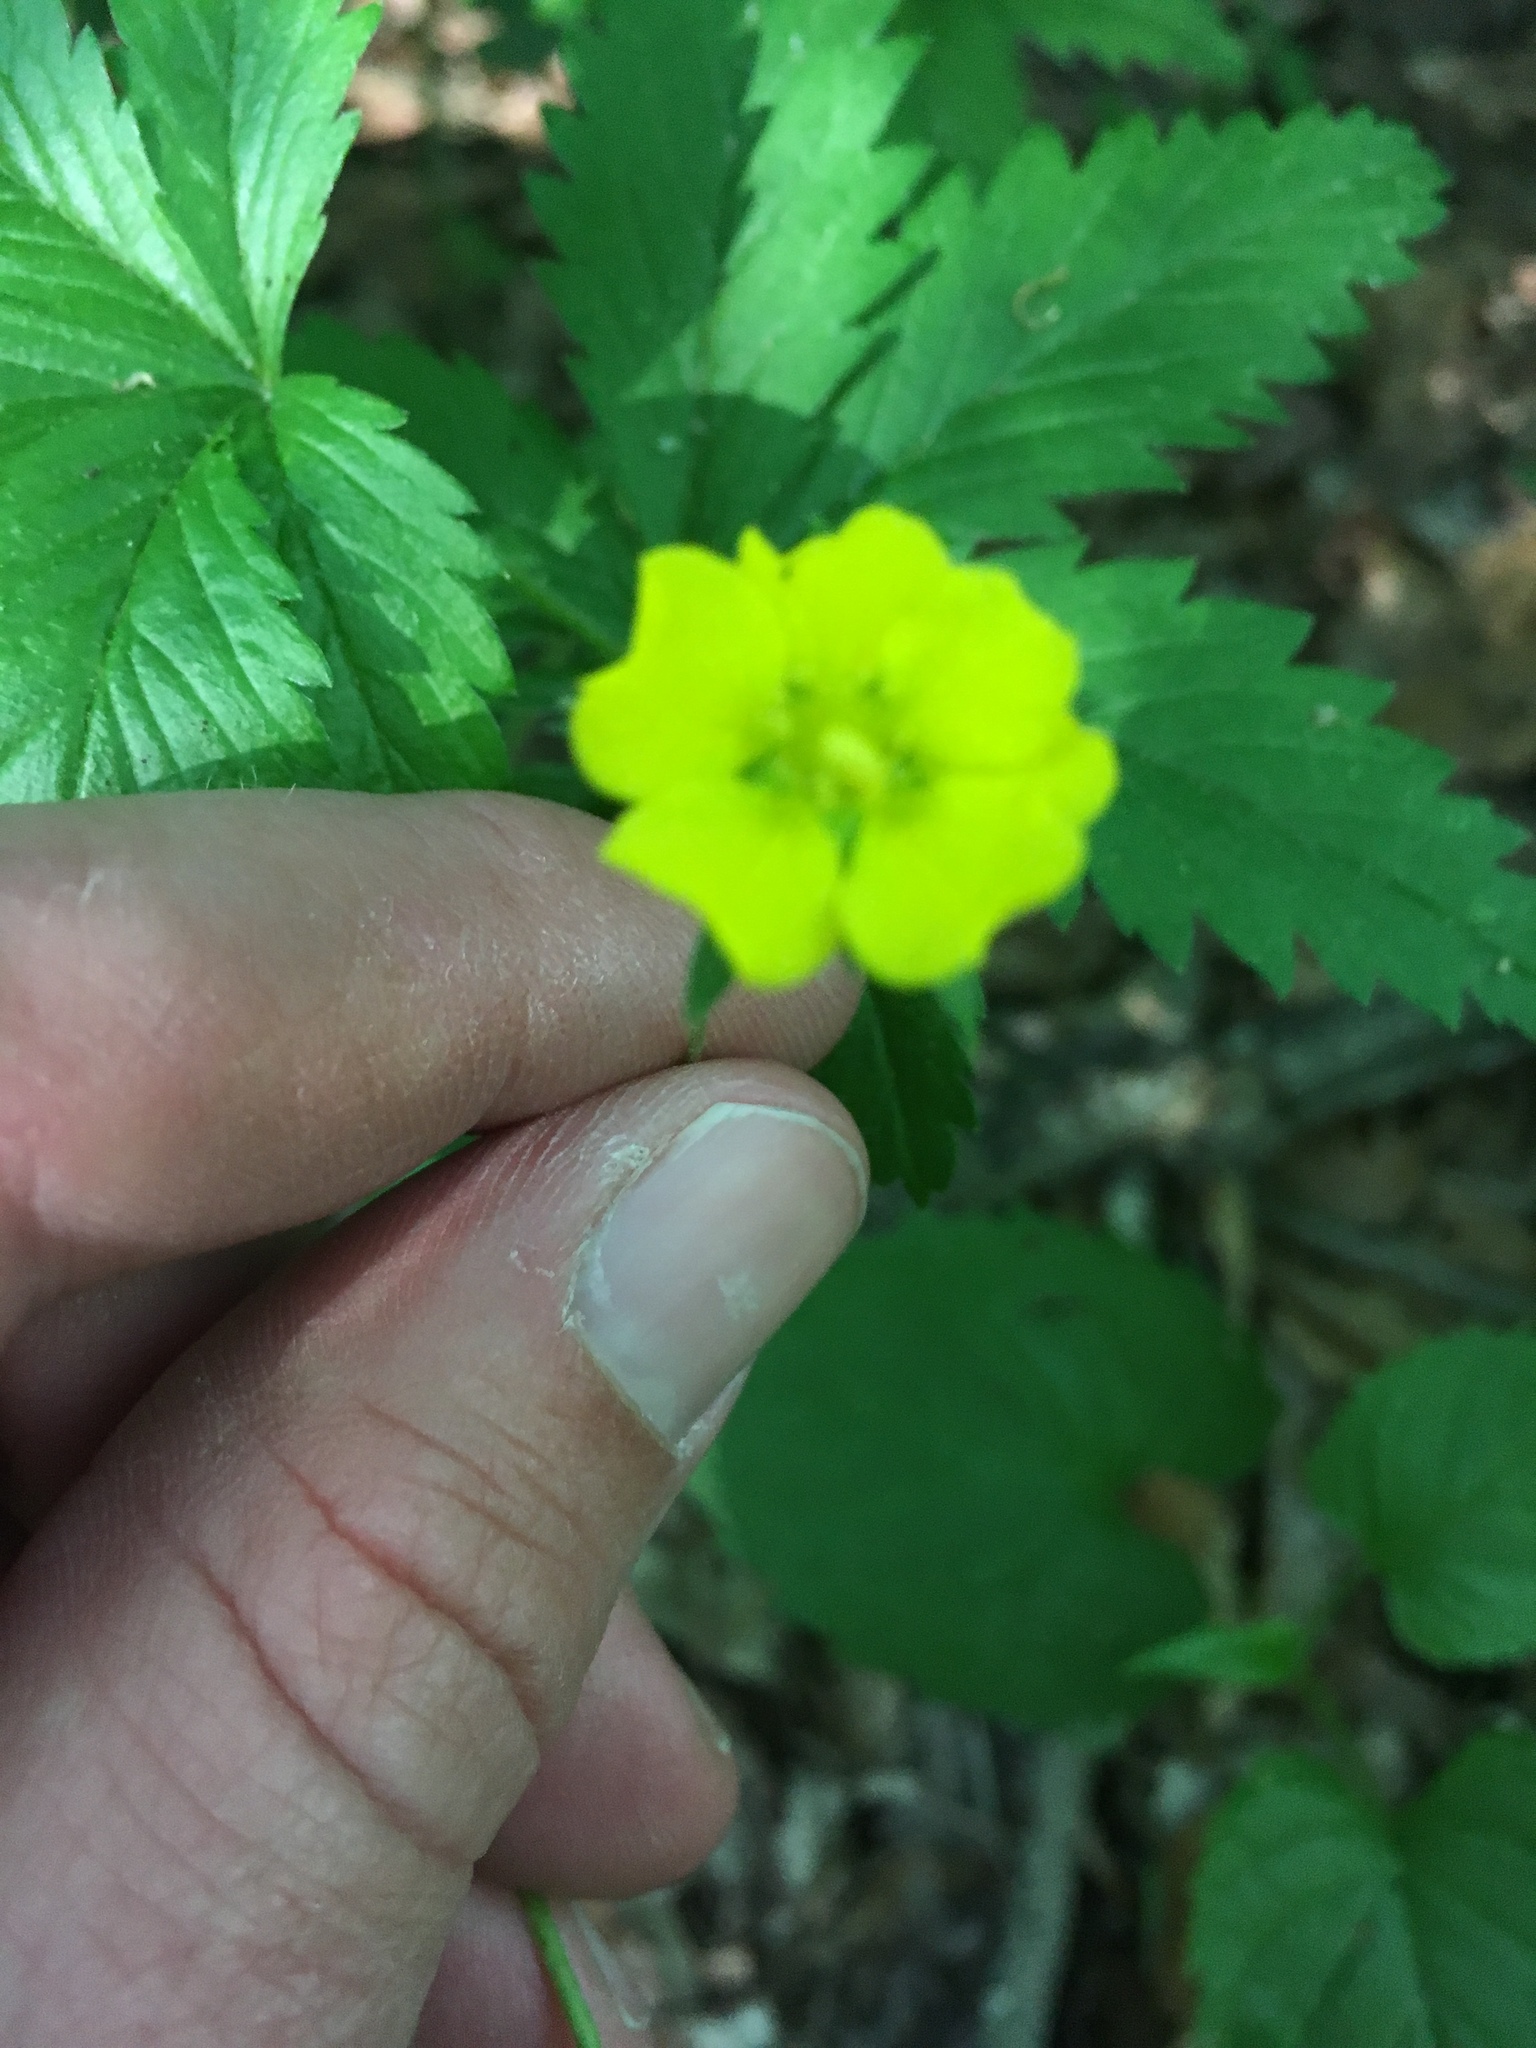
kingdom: Plantae
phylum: Tracheophyta
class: Magnoliopsida
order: Rosales
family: Rosaceae
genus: Potentilla
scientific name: Potentilla simplex
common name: Old field cinquefoil
